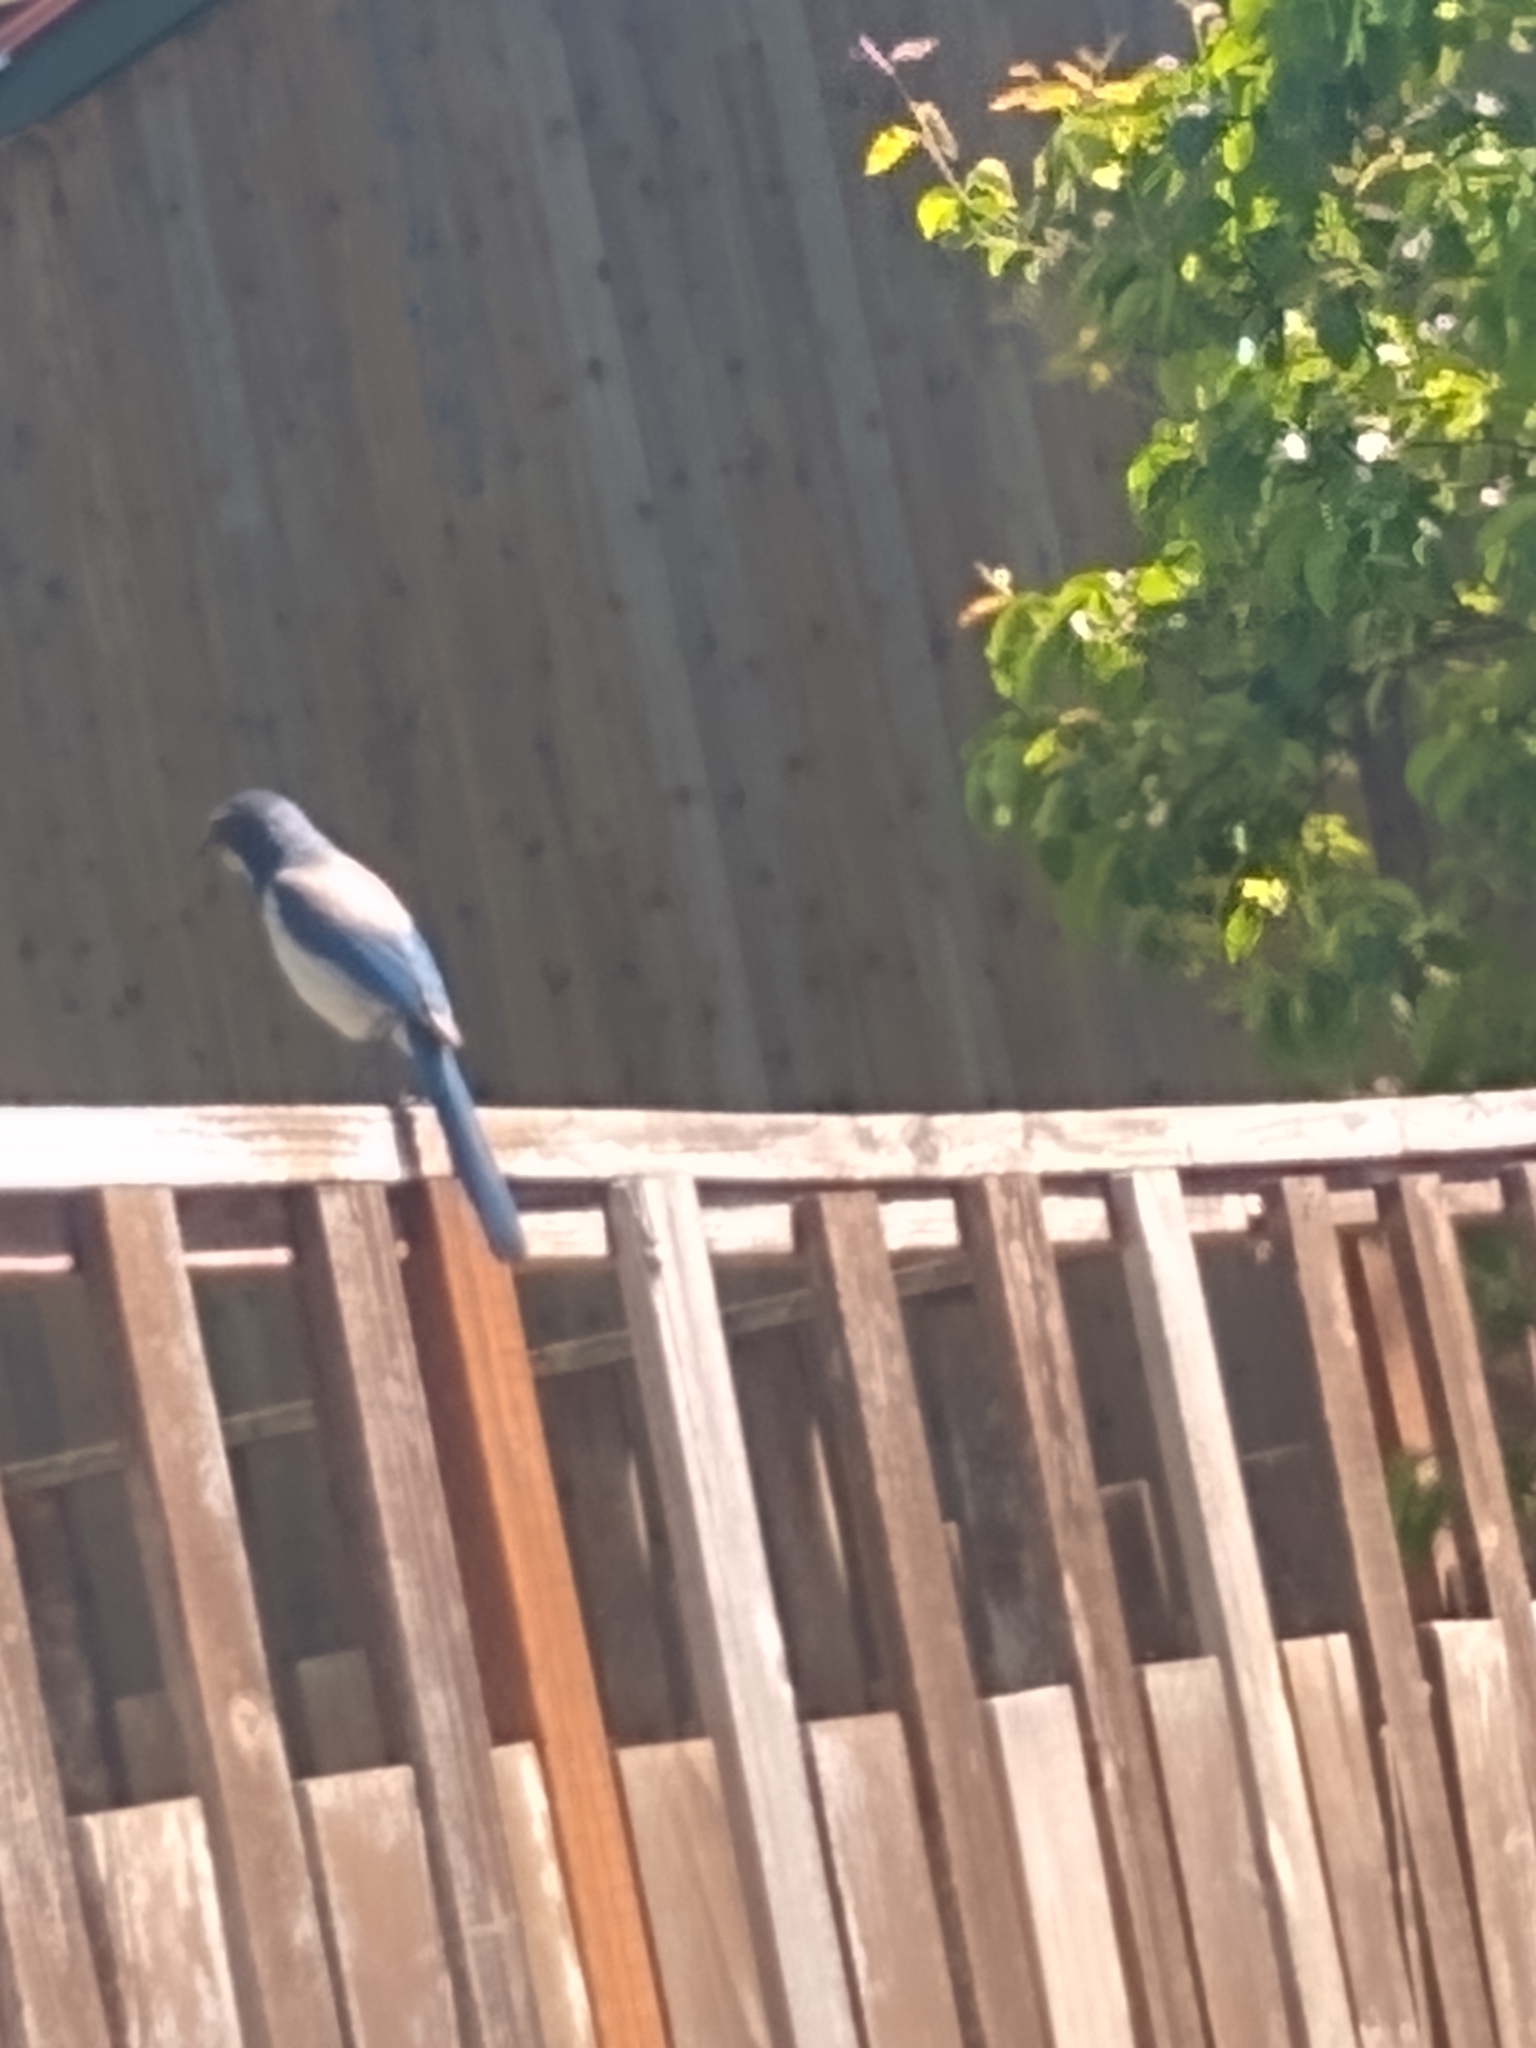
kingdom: Animalia
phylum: Chordata
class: Aves
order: Passeriformes
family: Corvidae
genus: Aphelocoma
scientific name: Aphelocoma californica
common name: California scrub-jay
